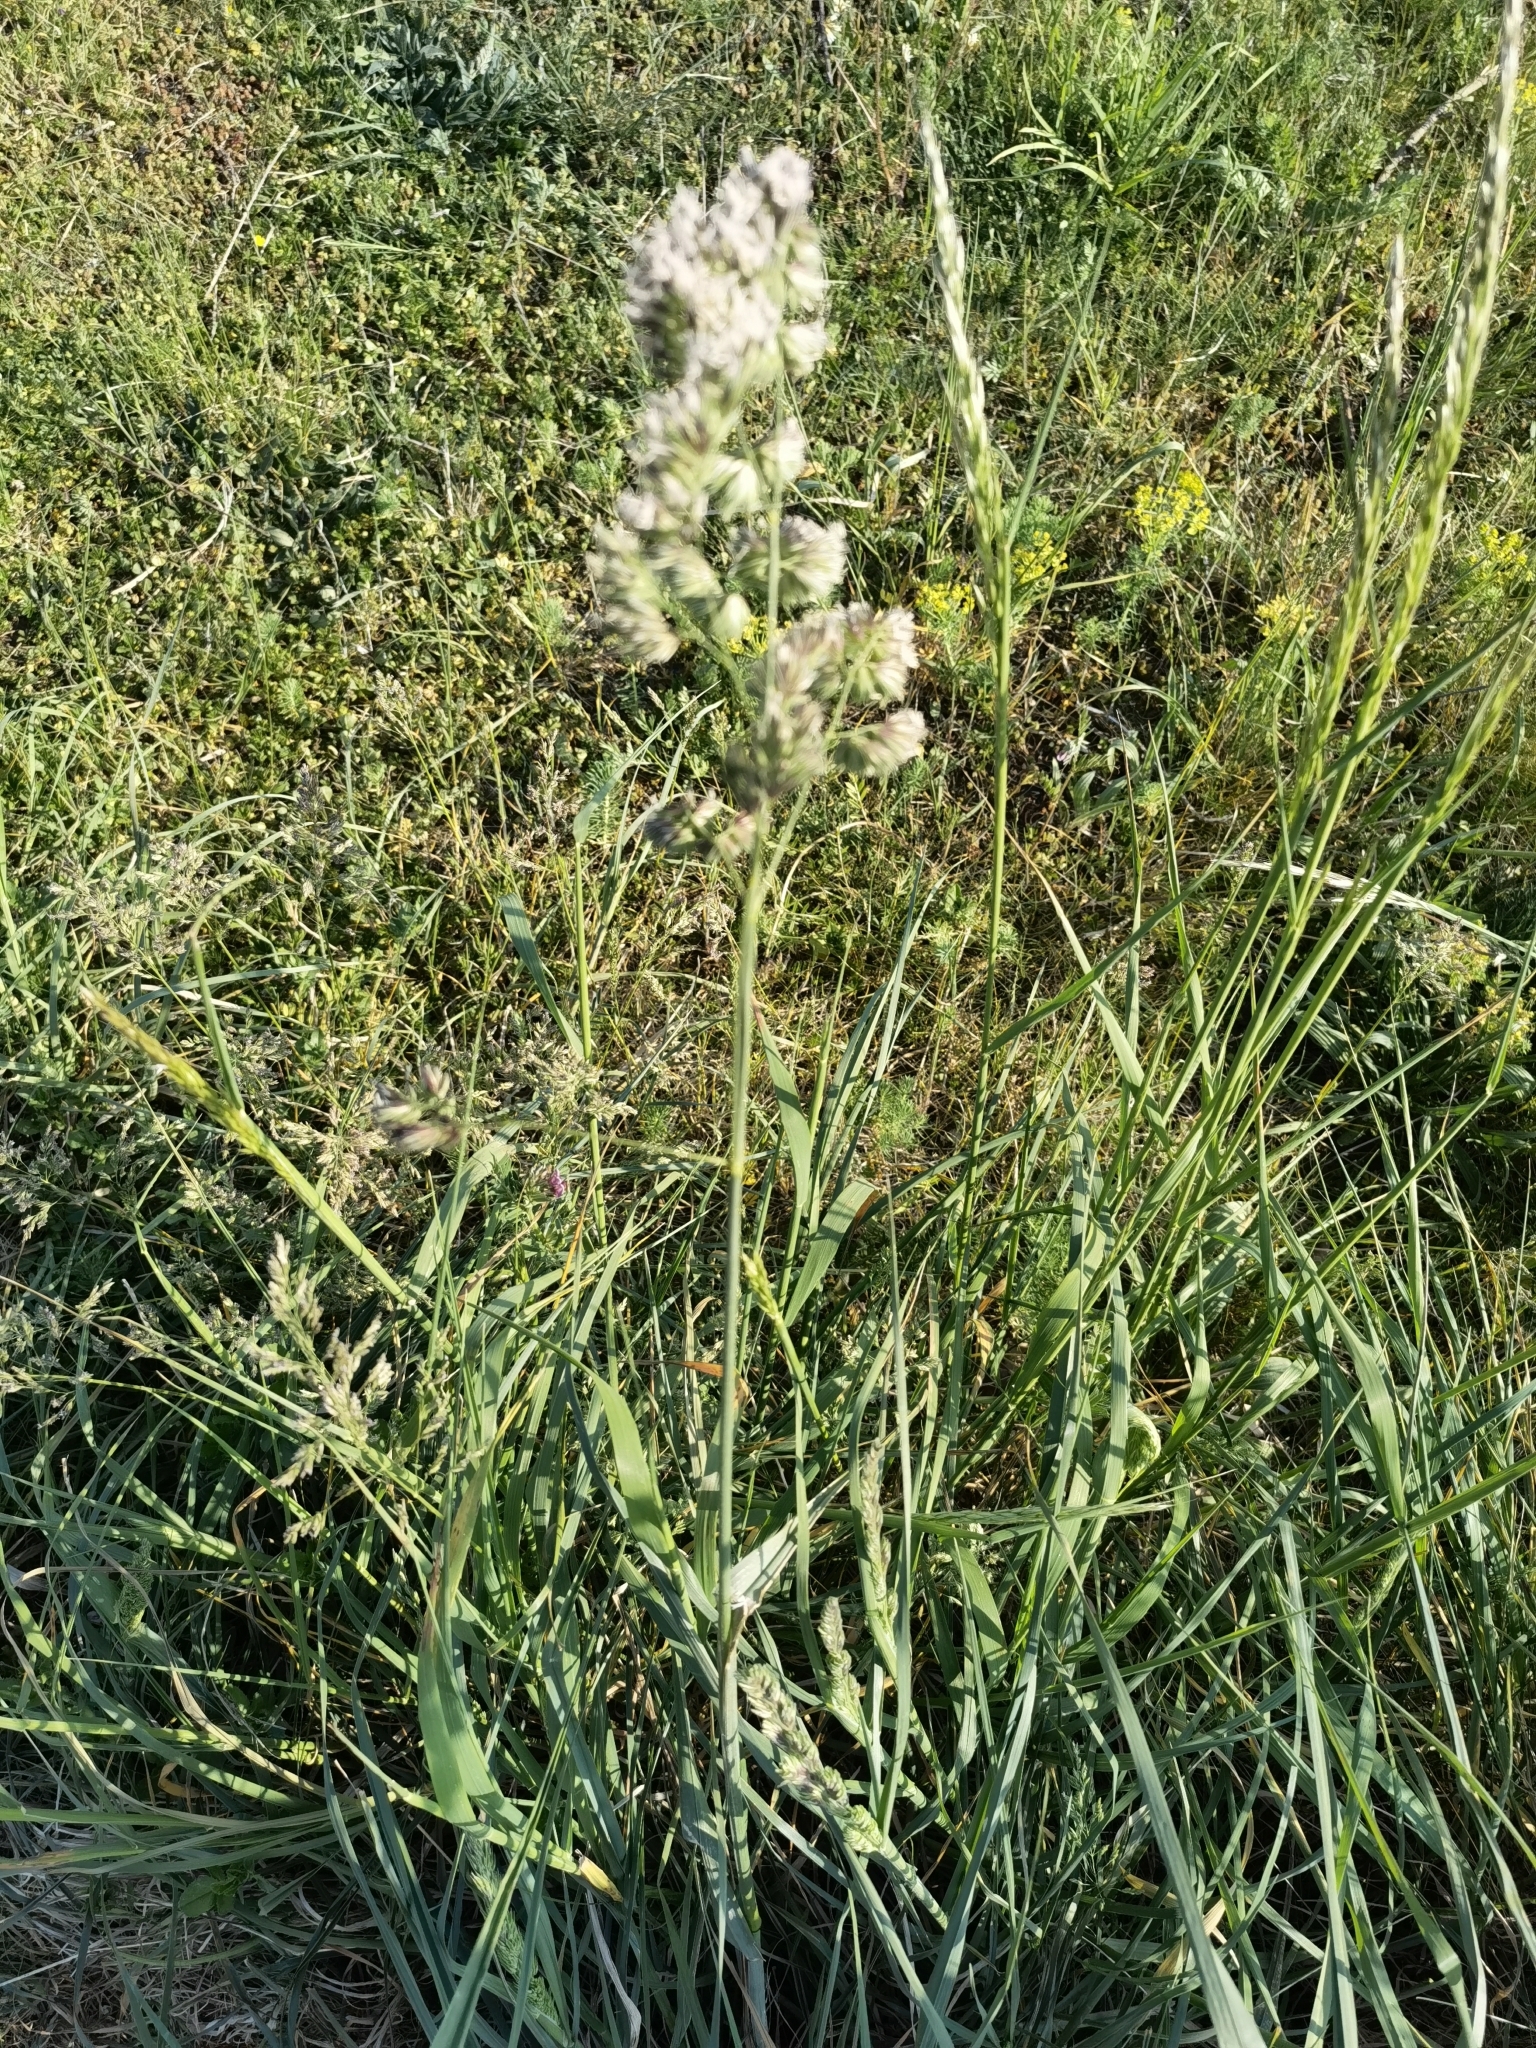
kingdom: Plantae
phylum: Tracheophyta
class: Liliopsida
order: Poales
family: Poaceae
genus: Dactylis
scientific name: Dactylis glomerata
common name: Orchardgrass
